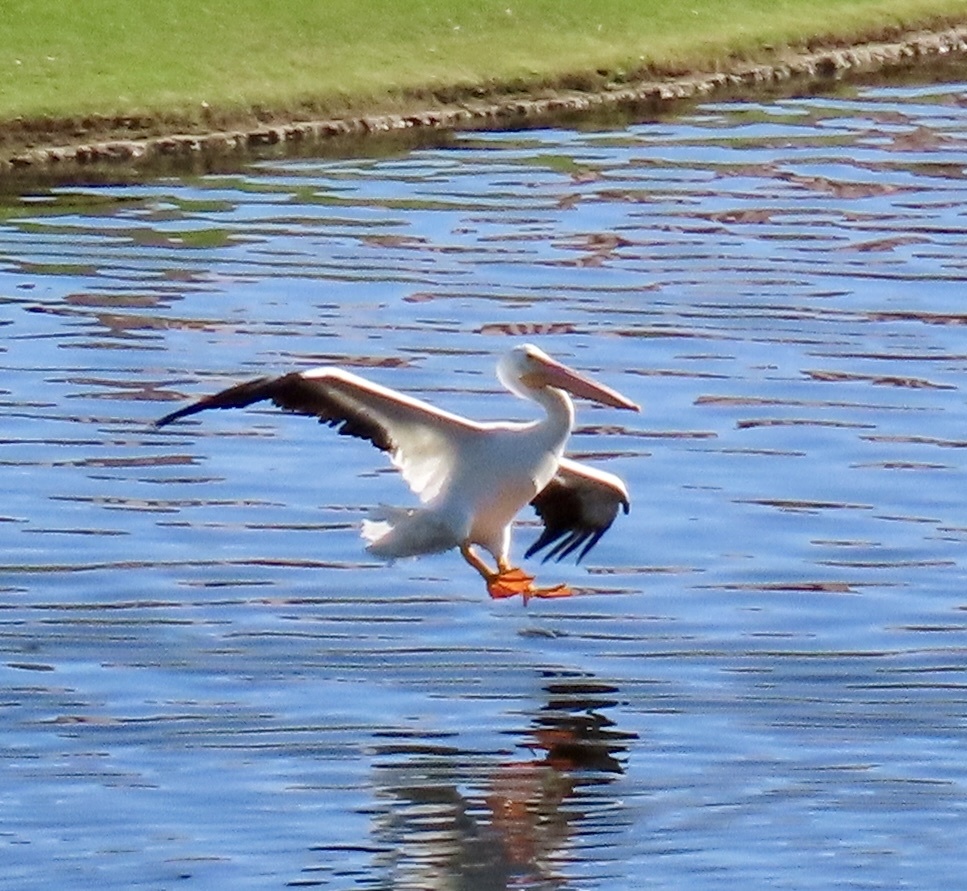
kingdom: Animalia
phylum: Chordata
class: Aves
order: Pelecaniformes
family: Pelecanidae
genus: Pelecanus
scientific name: Pelecanus erythrorhynchos
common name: American white pelican
